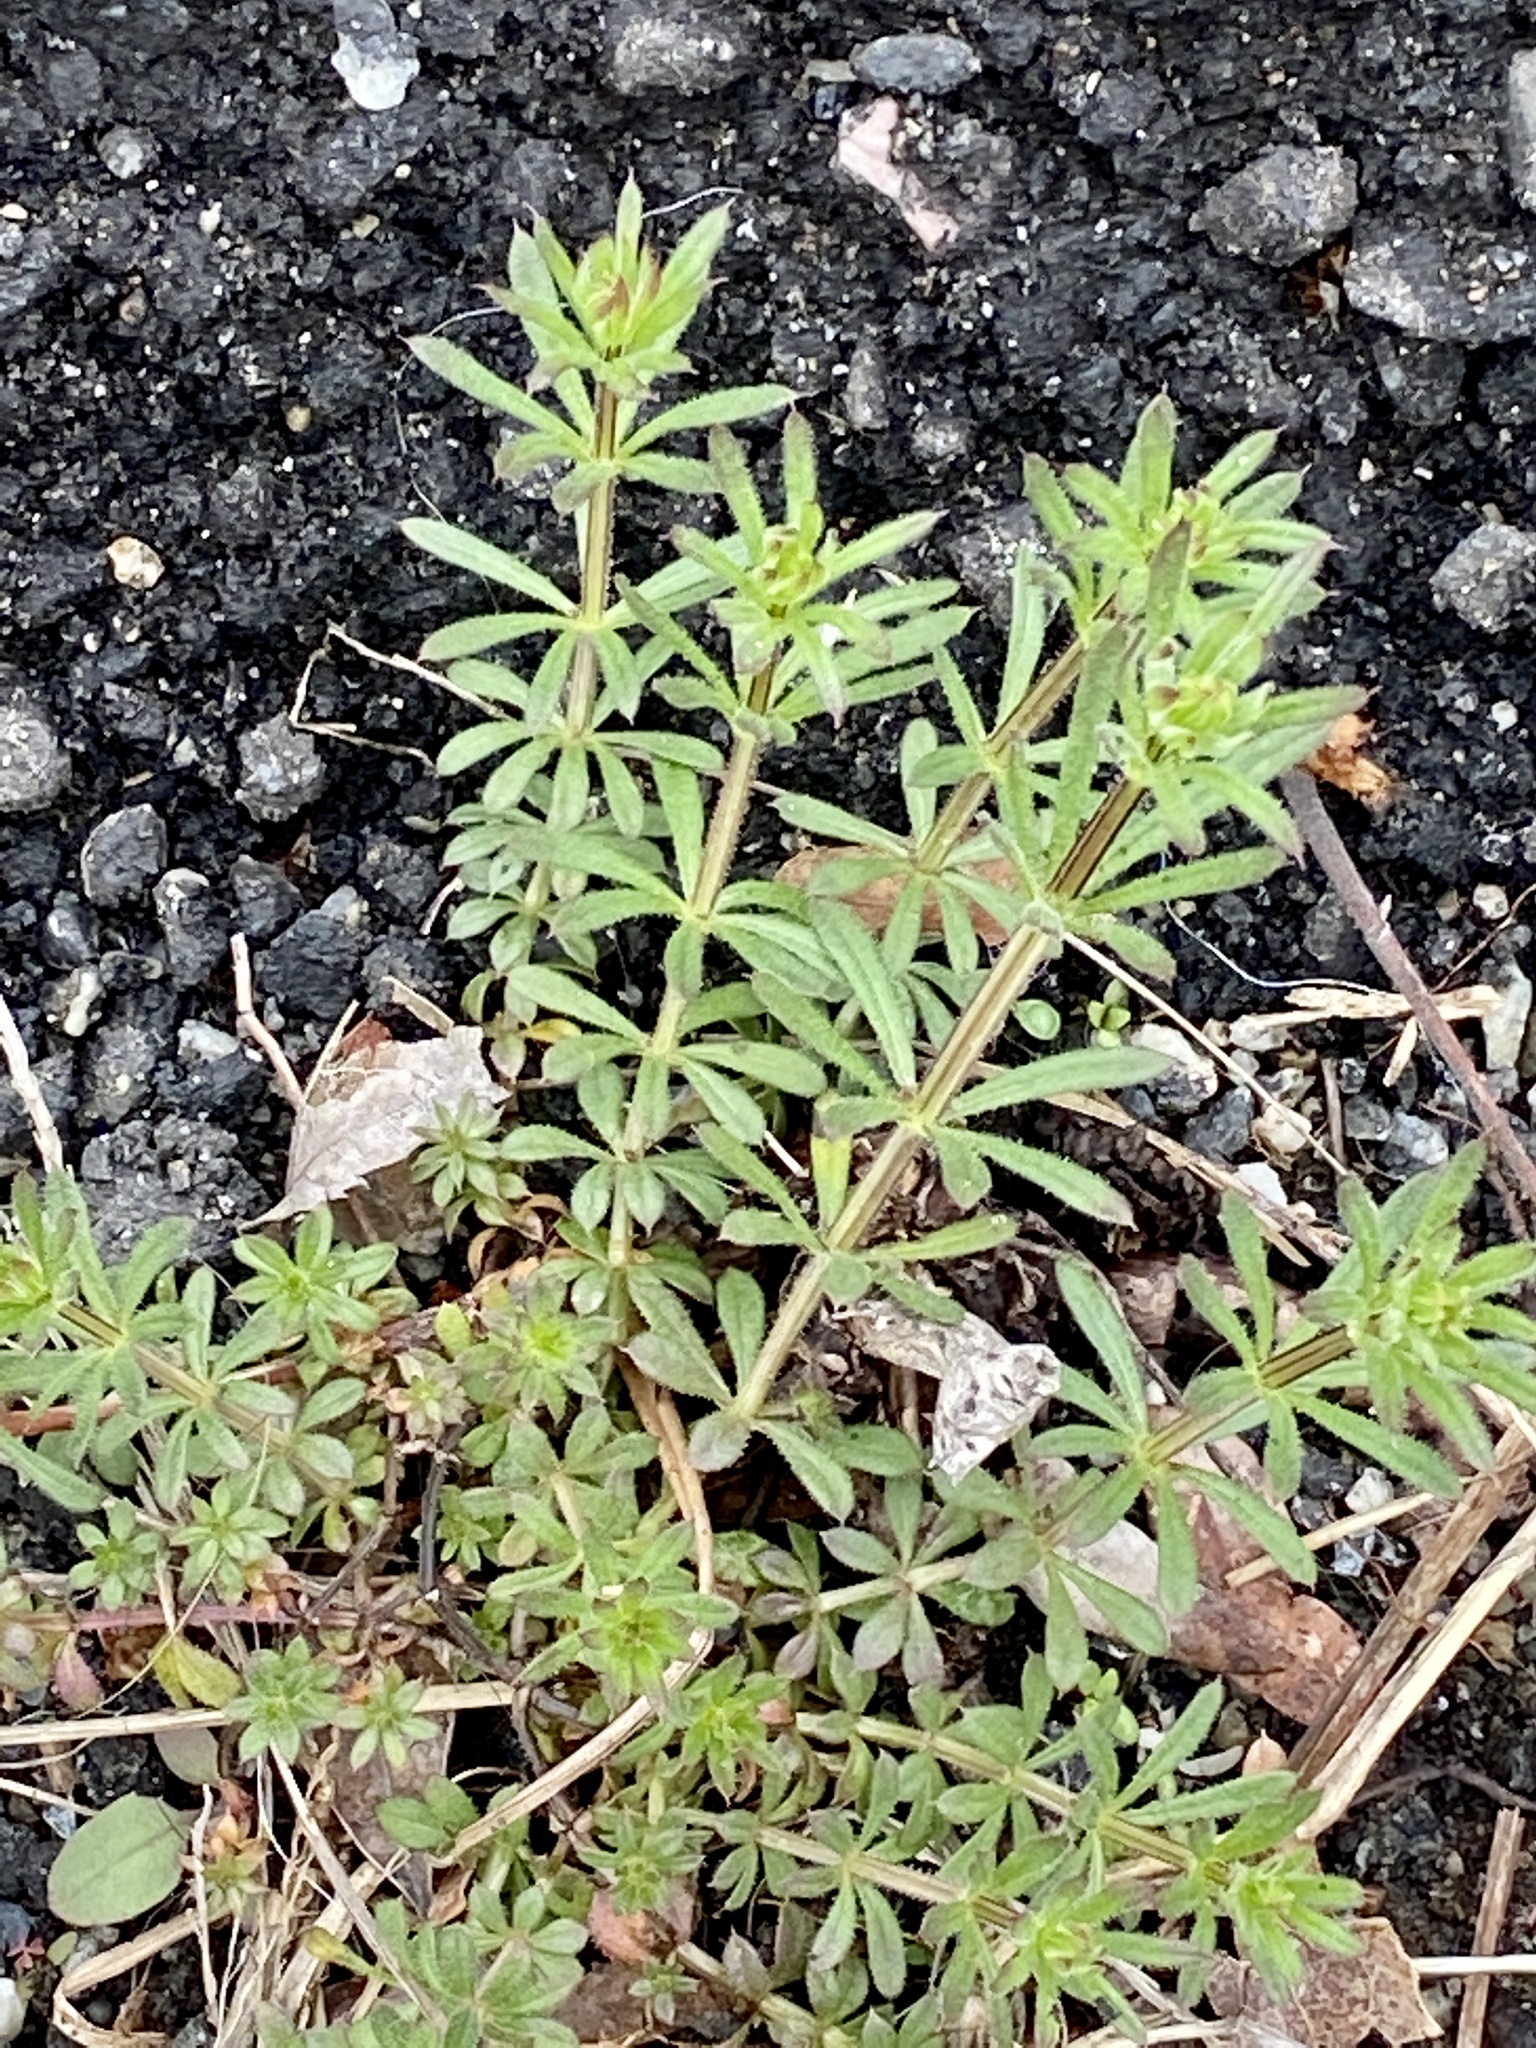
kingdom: Plantae
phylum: Tracheophyta
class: Magnoliopsida
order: Gentianales
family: Rubiaceae
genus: Galium
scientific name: Galium aparine
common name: Cleavers
